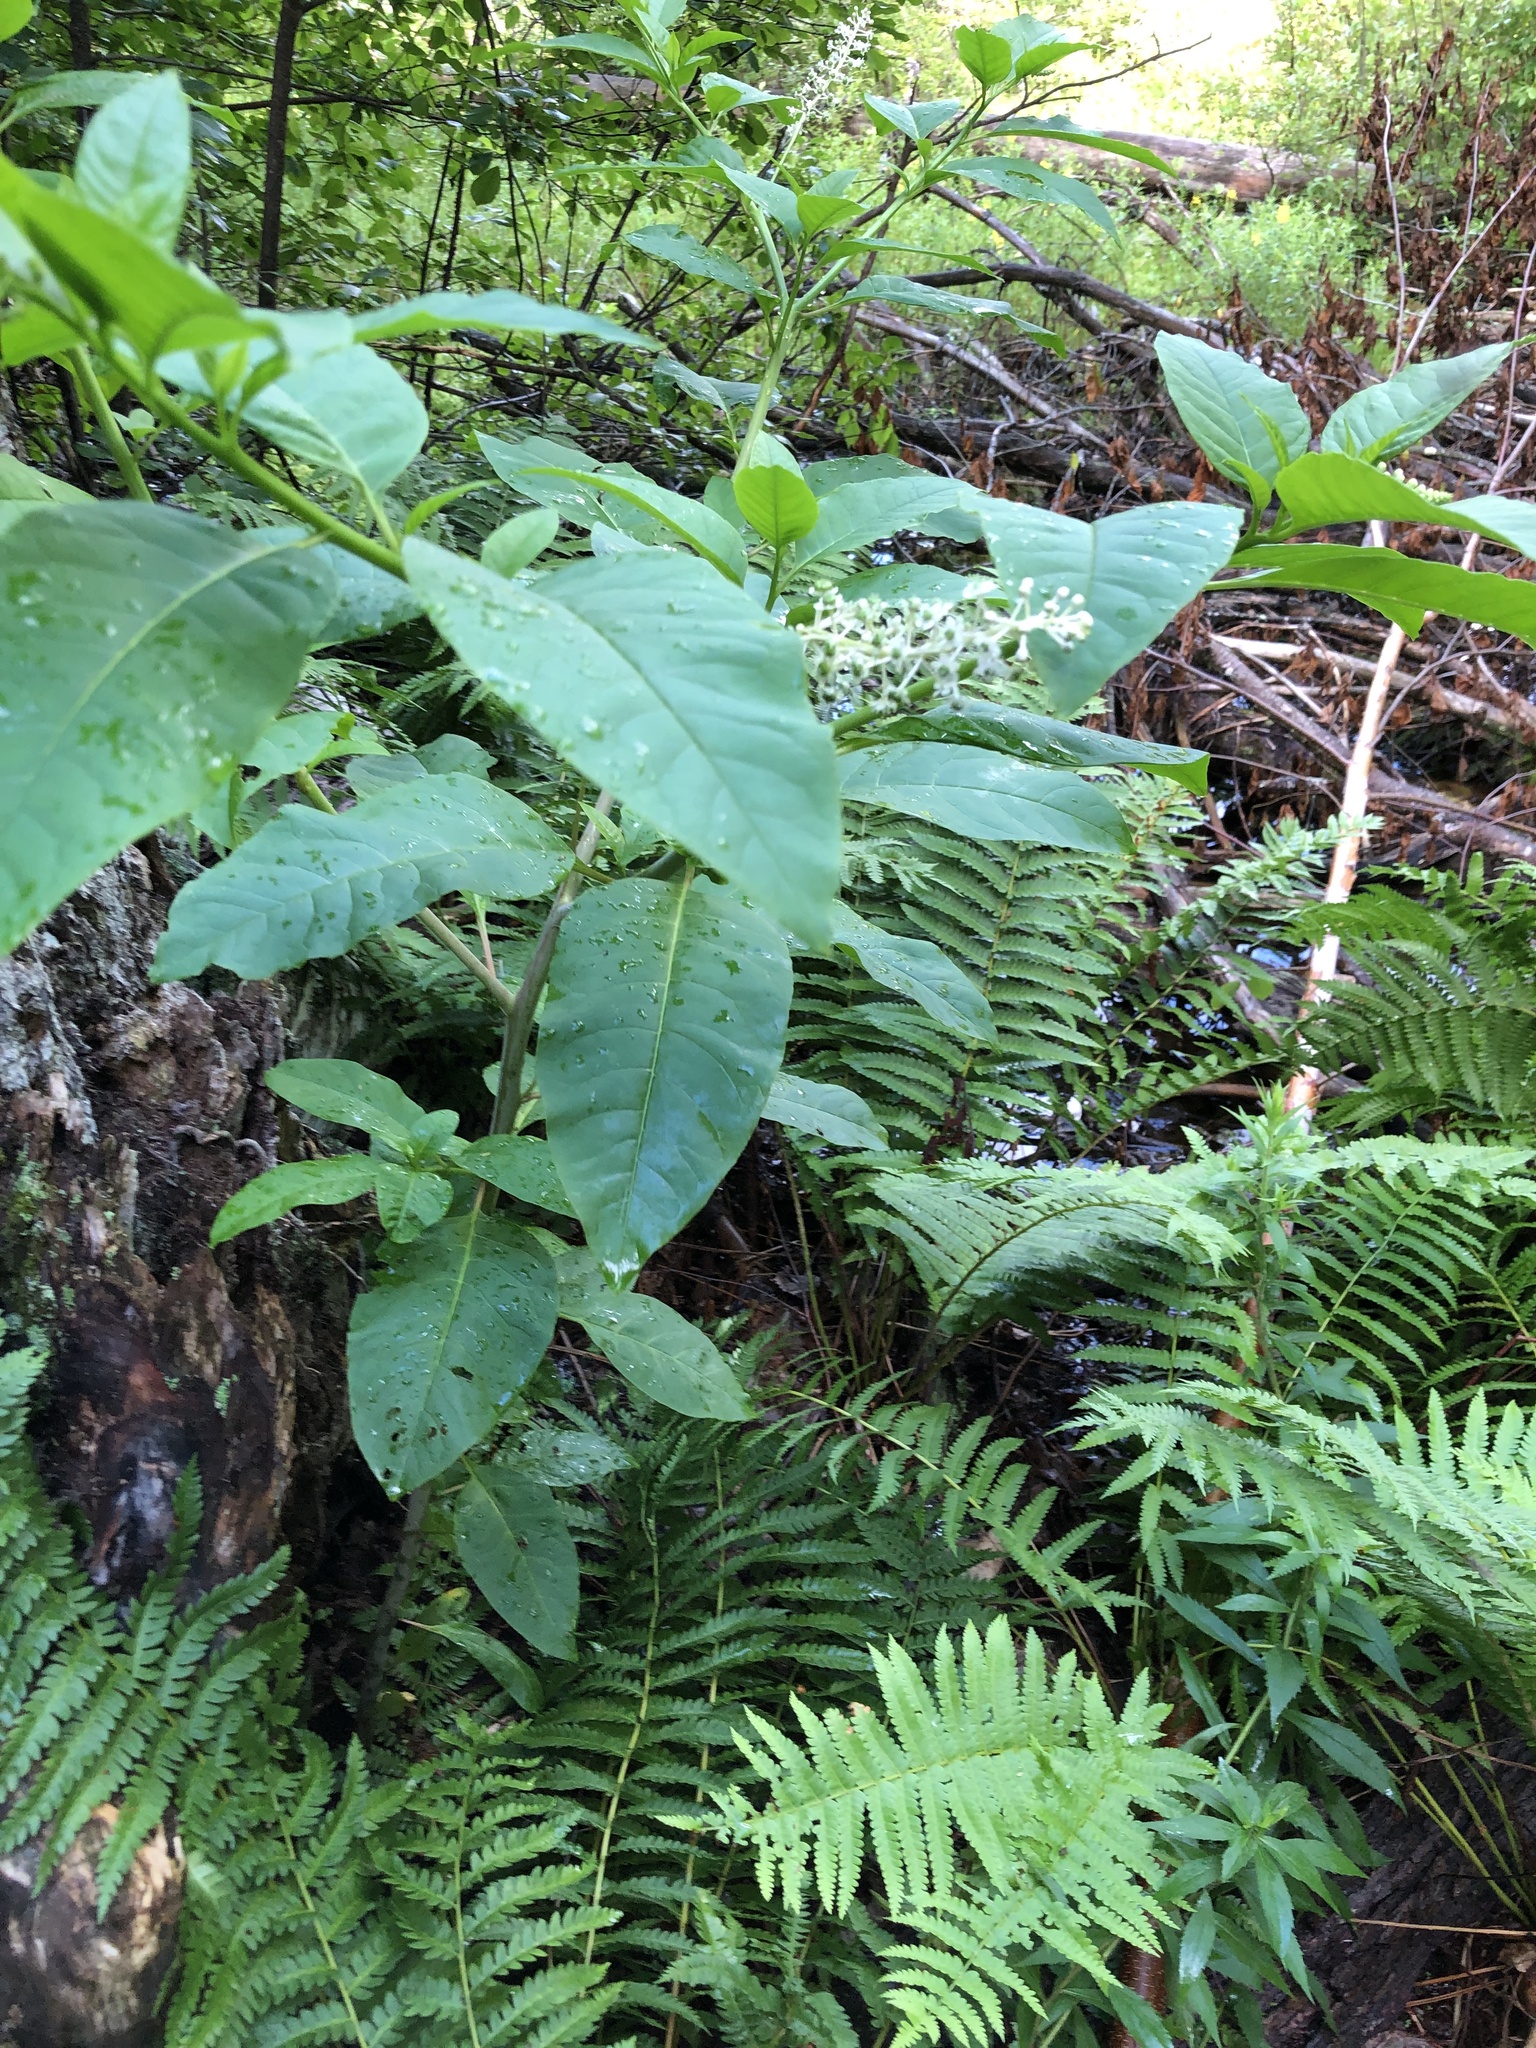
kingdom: Plantae
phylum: Tracheophyta
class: Magnoliopsida
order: Caryophyllales
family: Phytolaccaceae
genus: Phytolacca
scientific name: Phytolacca americana
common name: American pokeweed
